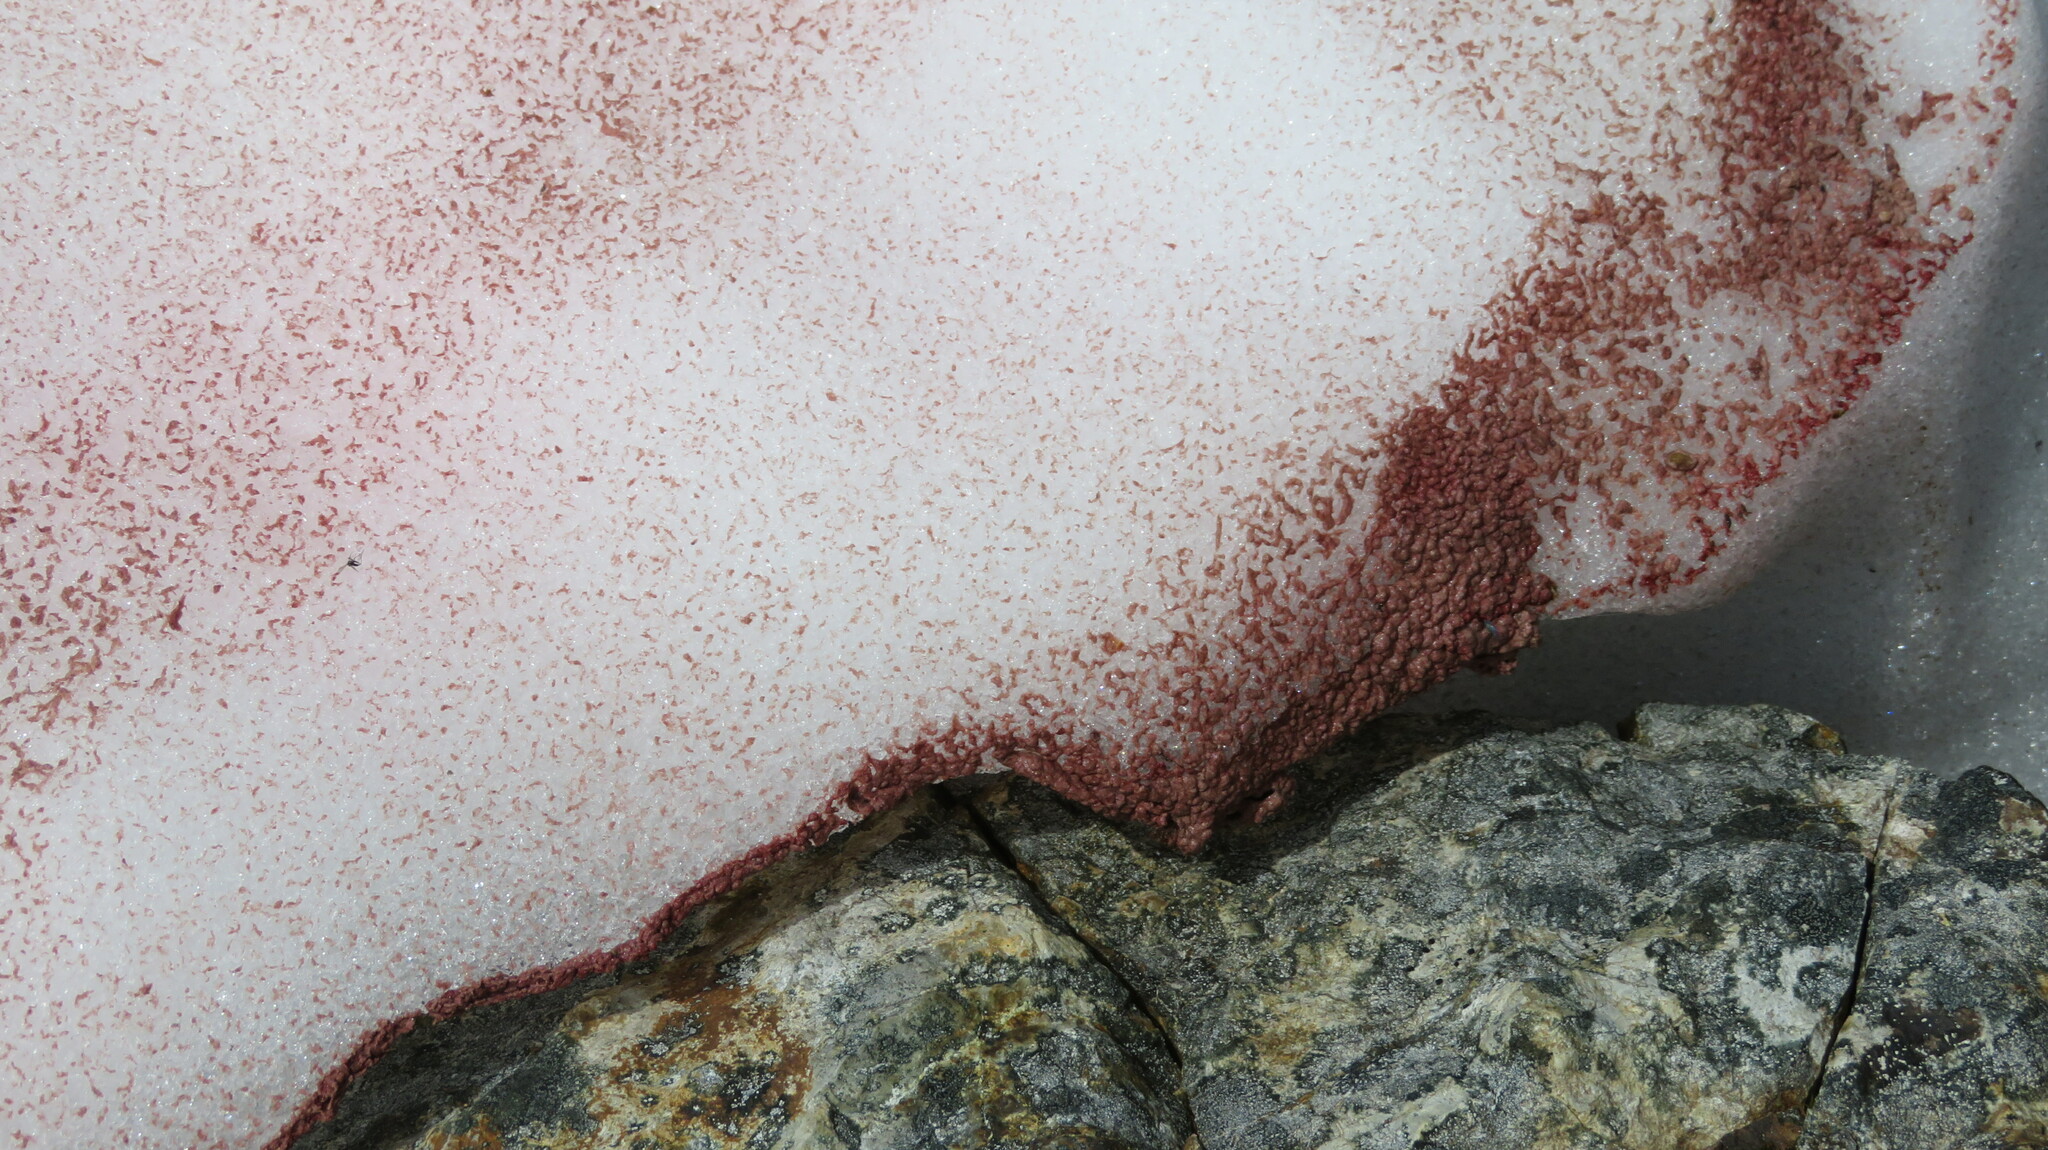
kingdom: Plantae
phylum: Chlorophyta
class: Chlorophyceae
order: Volvocales
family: Chlamydomonadaceae
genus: Chlamydomonas
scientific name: Chlamydomonas nivalis
